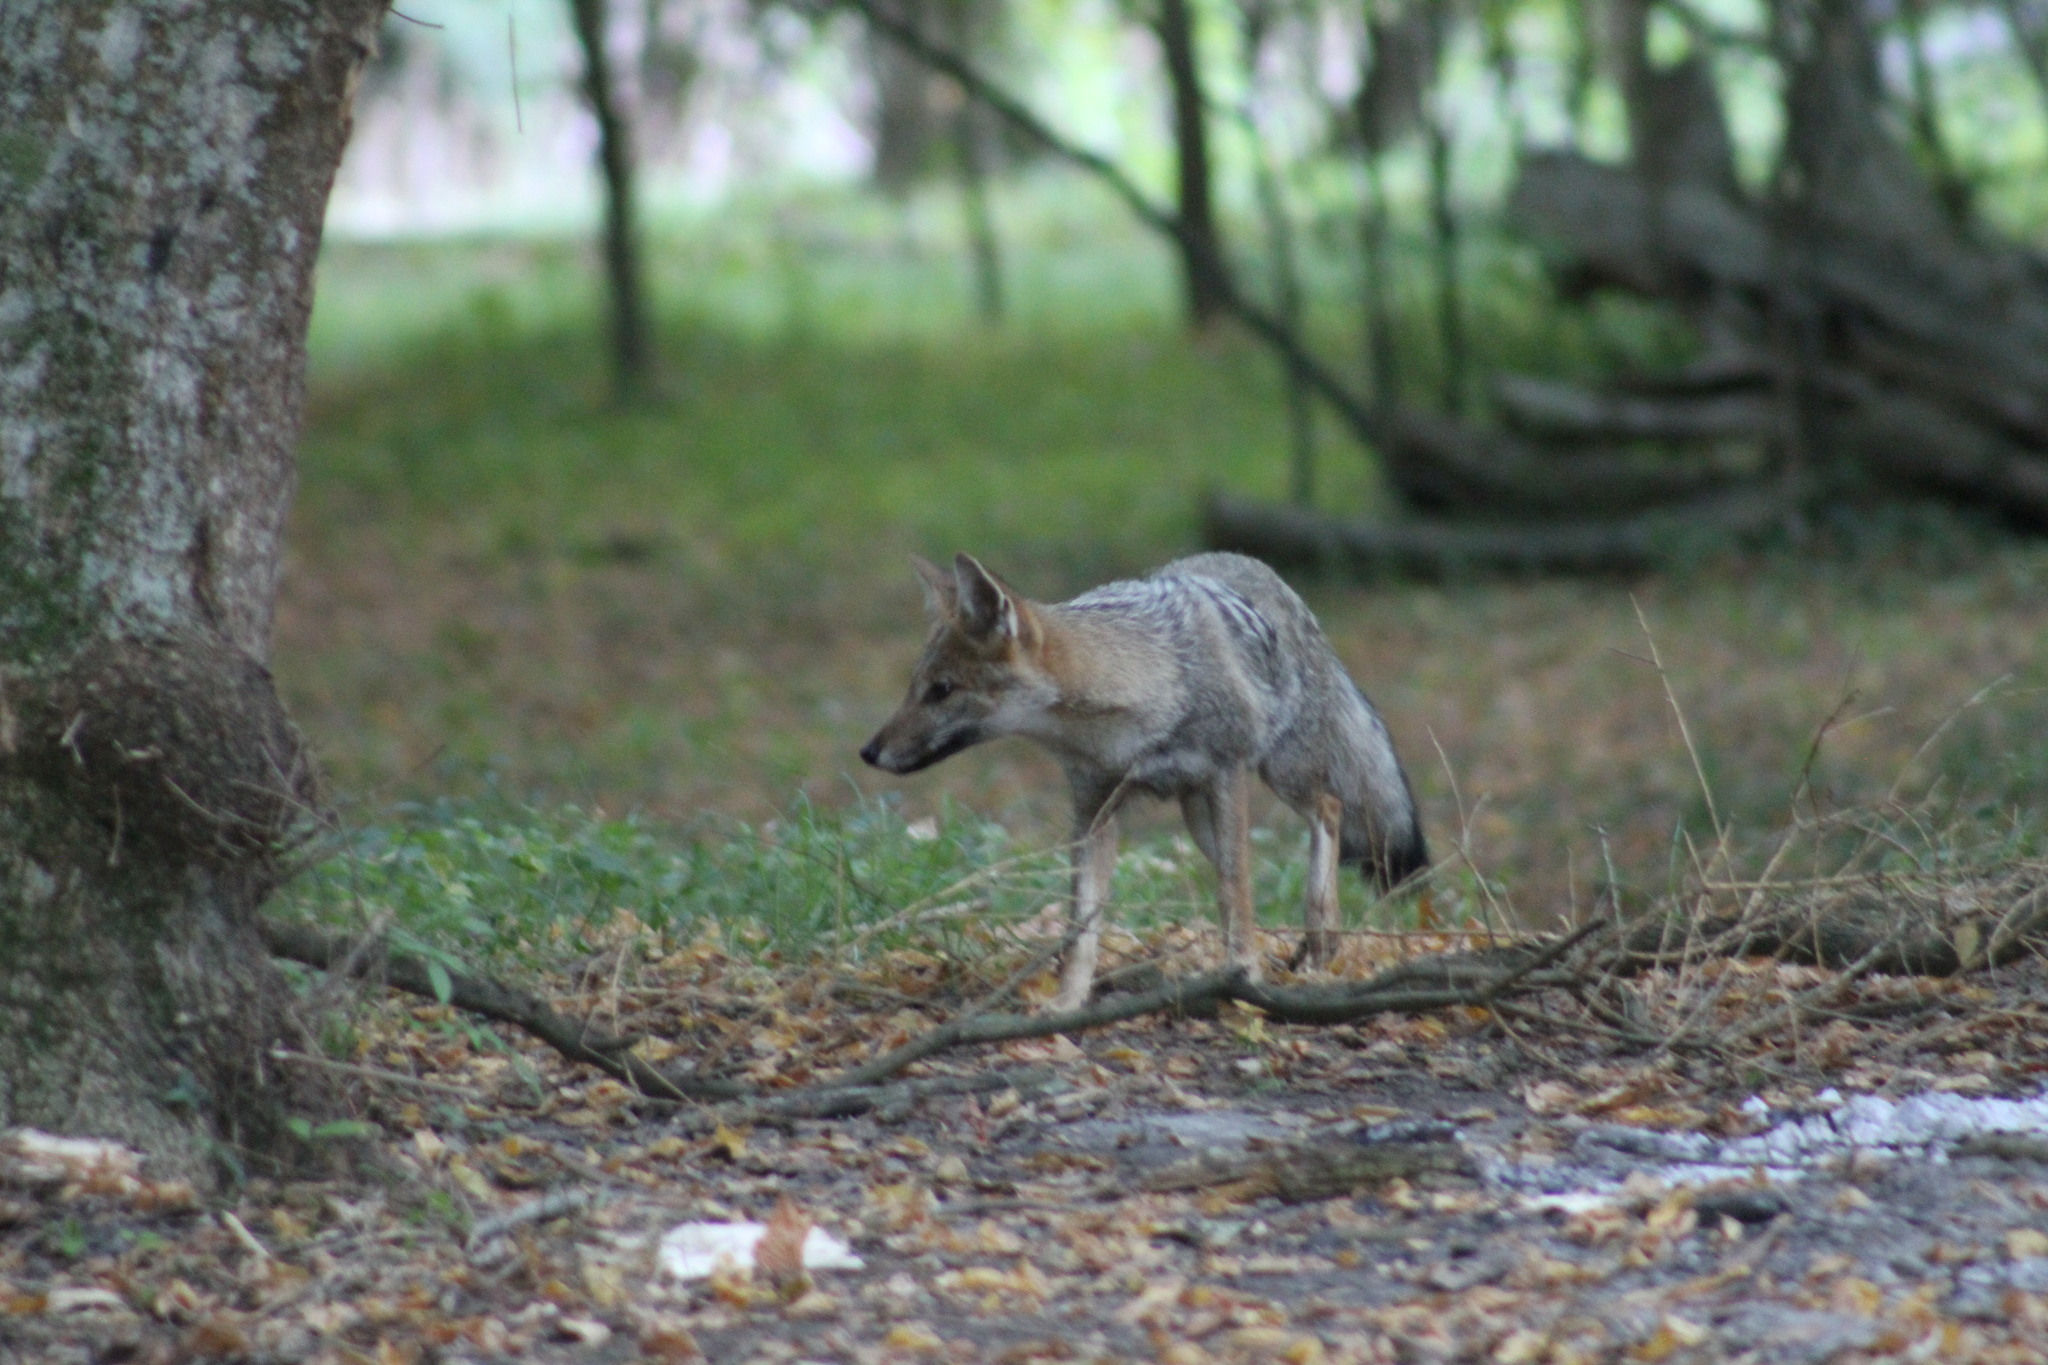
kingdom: Animalia
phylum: Chordata
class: Mammalia
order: Carnivora
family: Canidae
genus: Lycalopex
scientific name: Lycalopex gymnocercus
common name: Pampas fox
